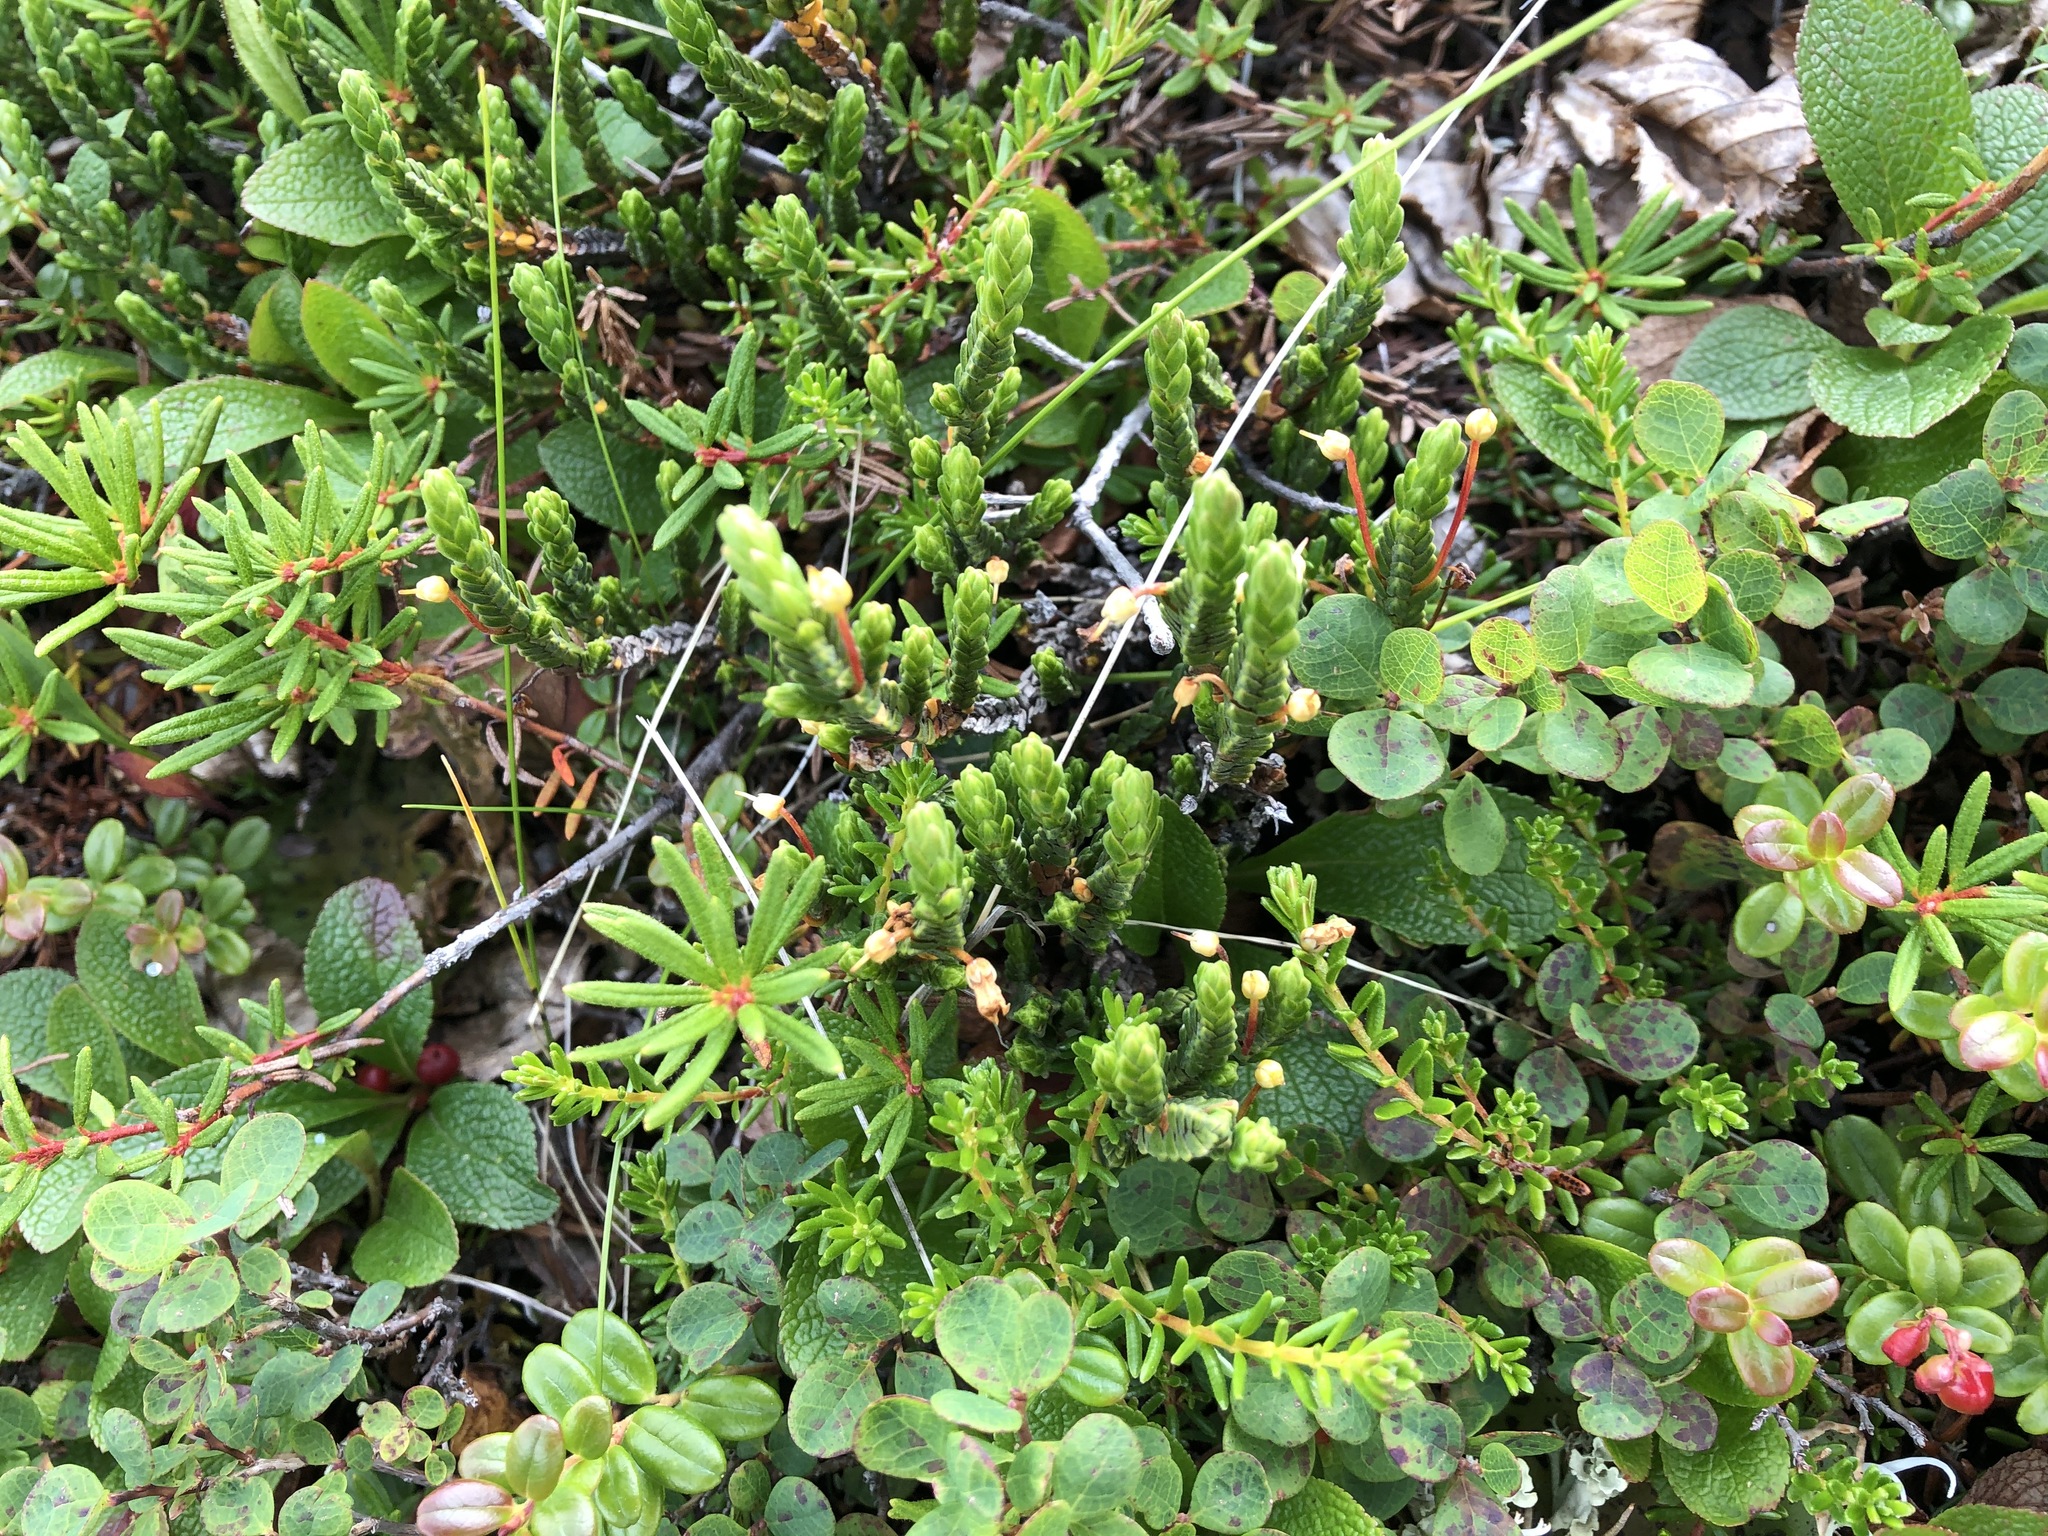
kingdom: Plantae
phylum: Tracheophyta
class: Magnoliopsida
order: Ericales
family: Ericaceae
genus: Cassiope
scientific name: Cassiope tetragona
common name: Arctic bell heather
